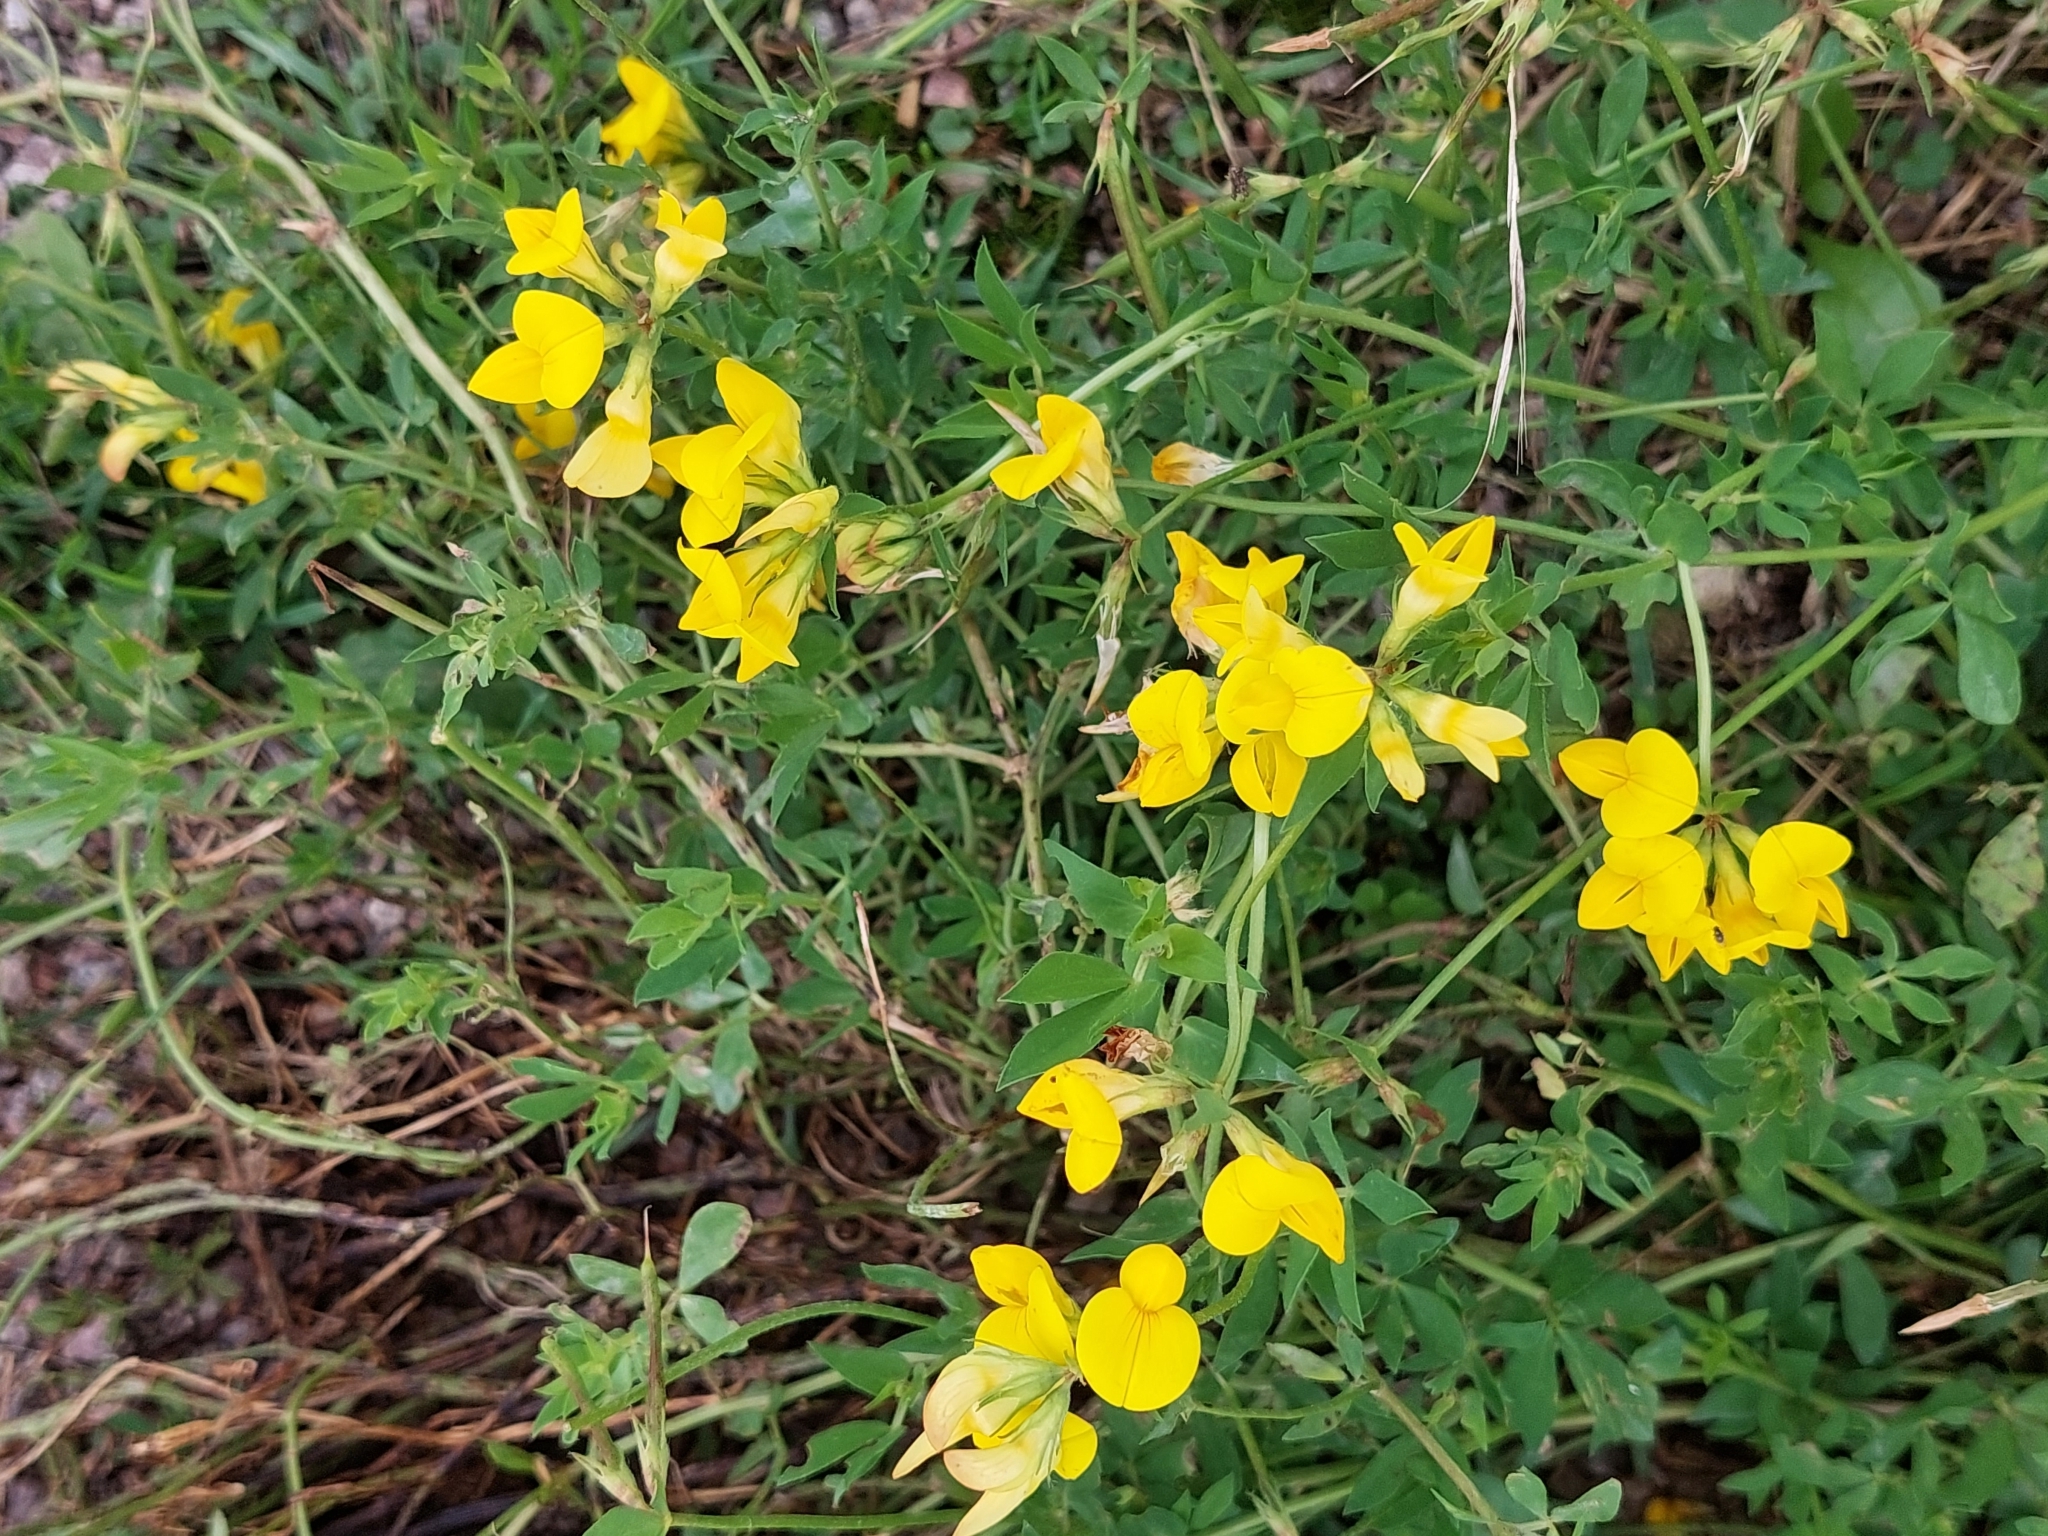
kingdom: Plantae
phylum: Tracheophyta
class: Magnoliopsida
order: Fabales
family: Fabaceae
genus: Lotus
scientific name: Lotus corniculatus
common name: Common bird's-foot-trefoil
